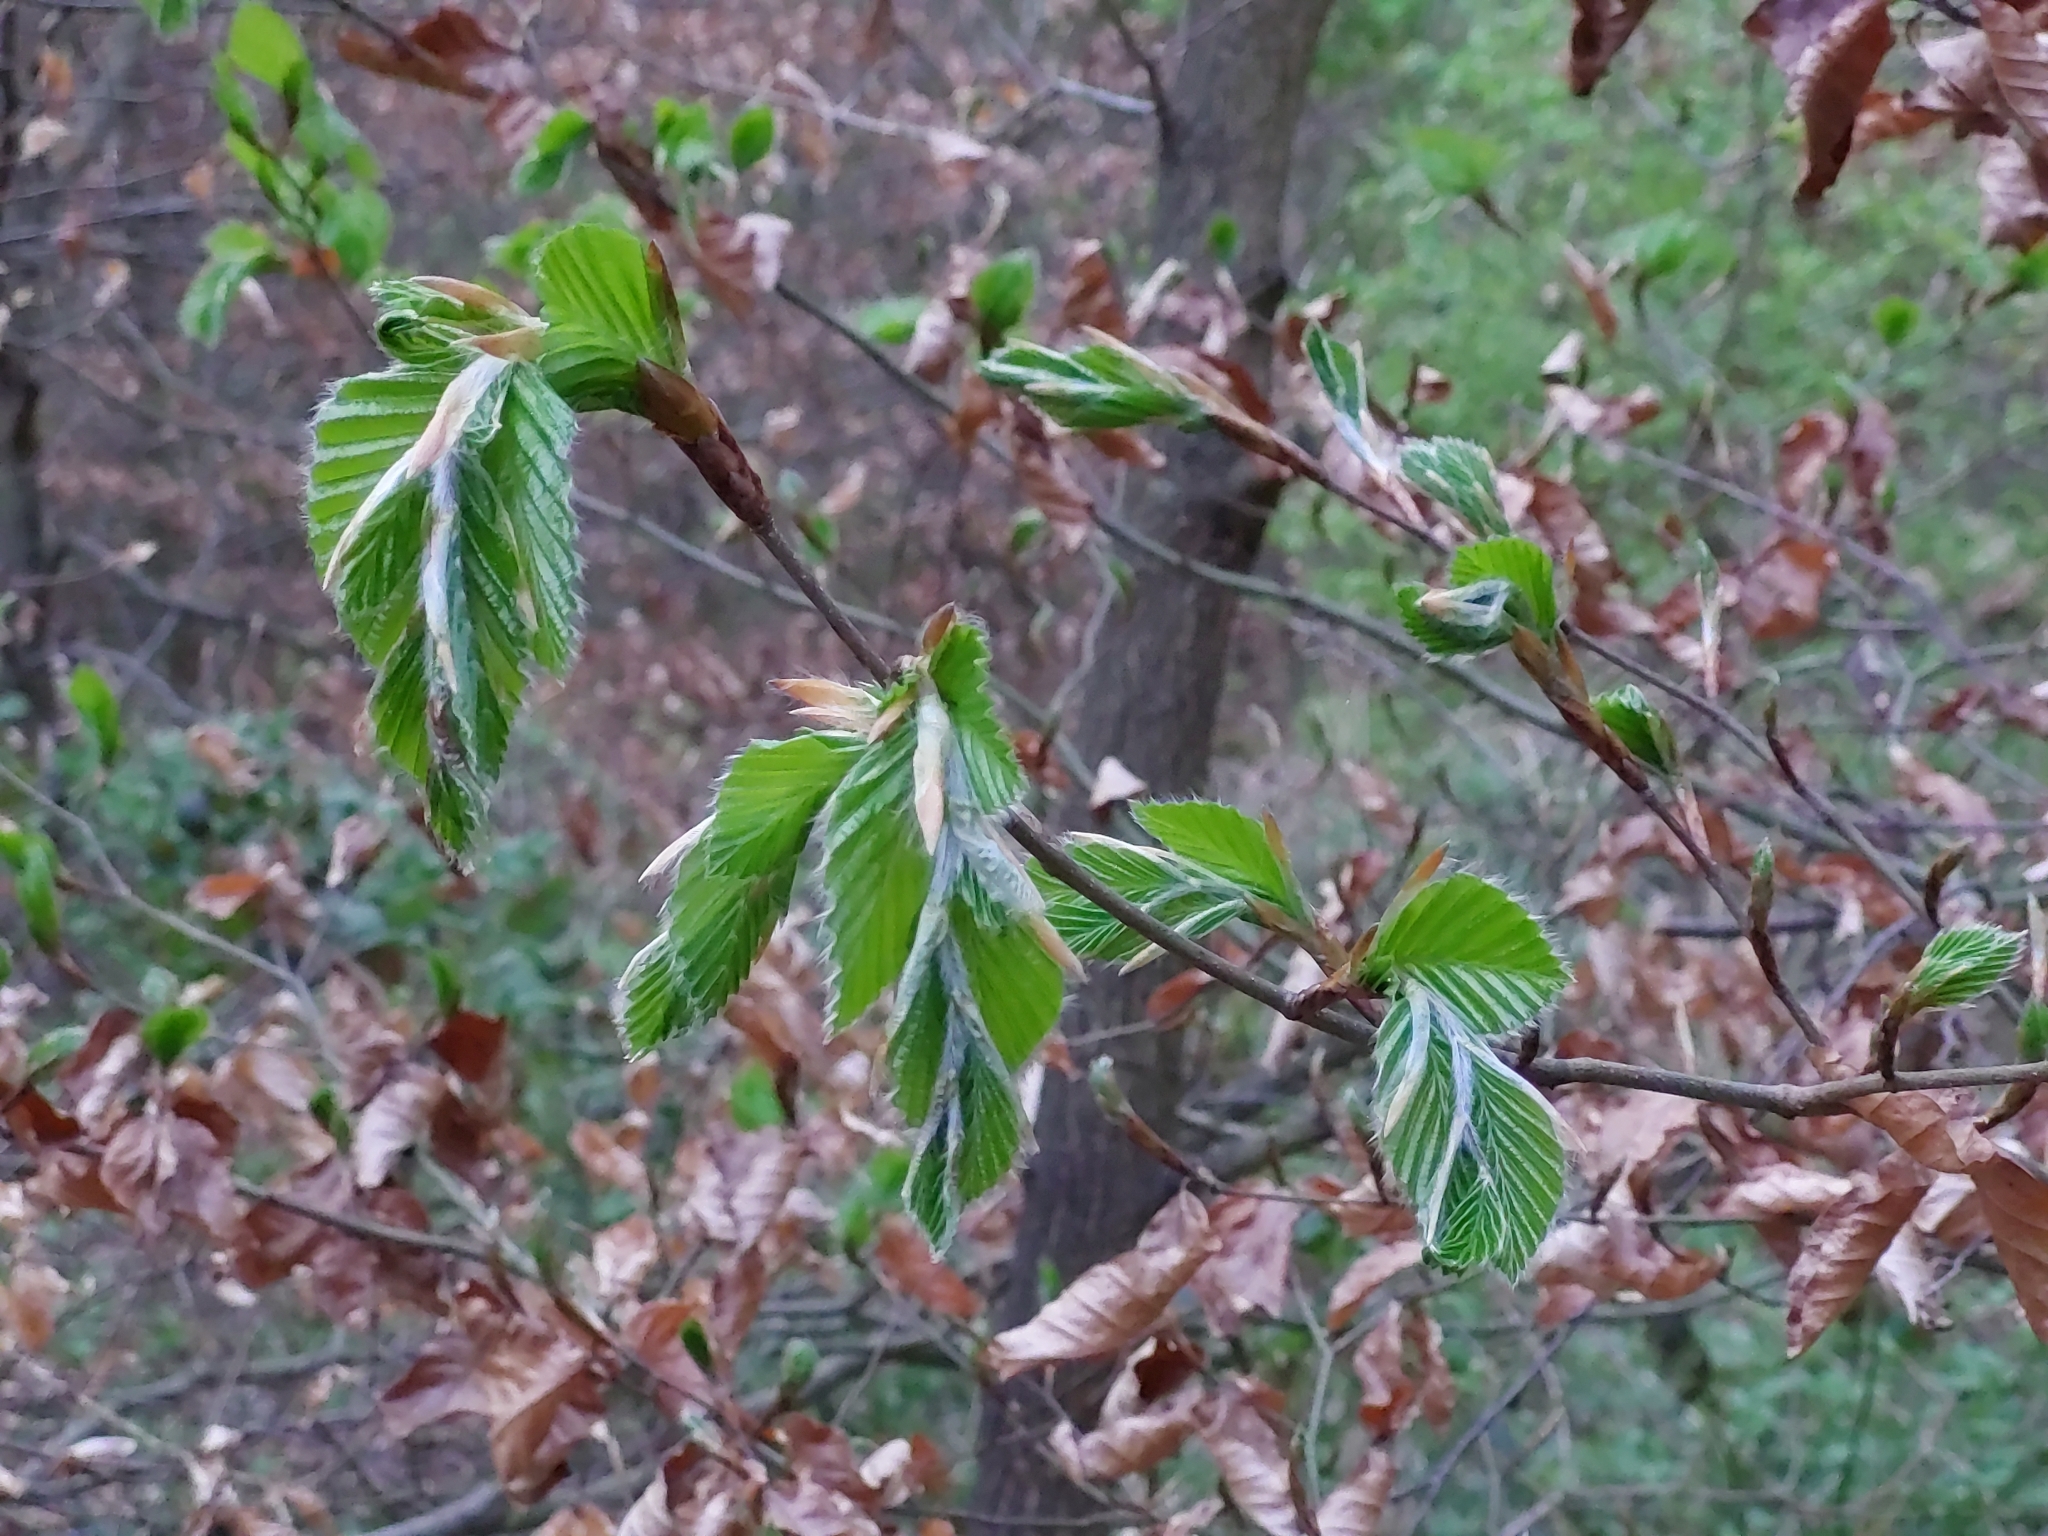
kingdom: Plantae
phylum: Tracheophyta
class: Magnoliopsida
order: Fagales
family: Fagaceae
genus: Fagus
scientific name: Fagus sylvatica
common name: Beech
